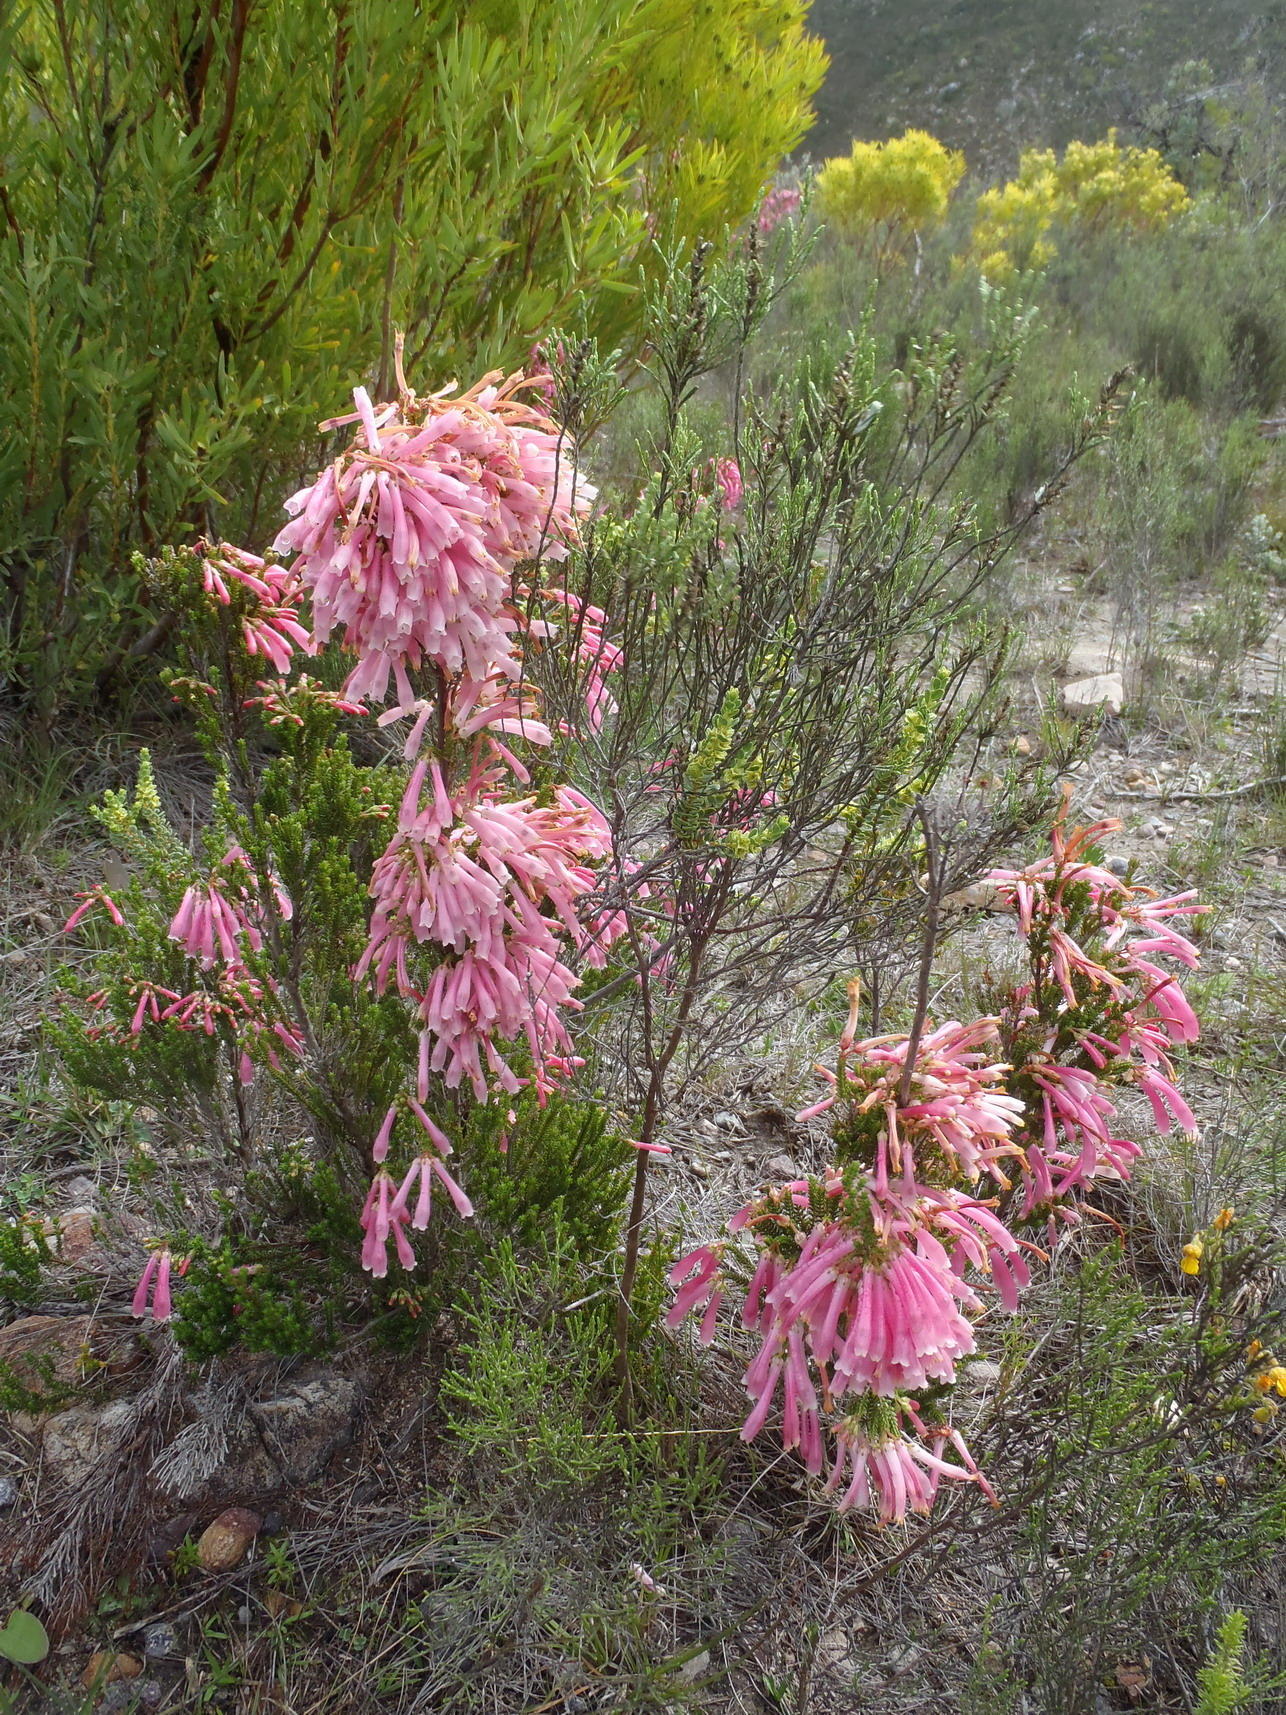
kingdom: Plantae
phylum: Tracheophyta
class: Magnoliopsida
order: Ericales
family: Ericaceae
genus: Erica
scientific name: Erica discolor
